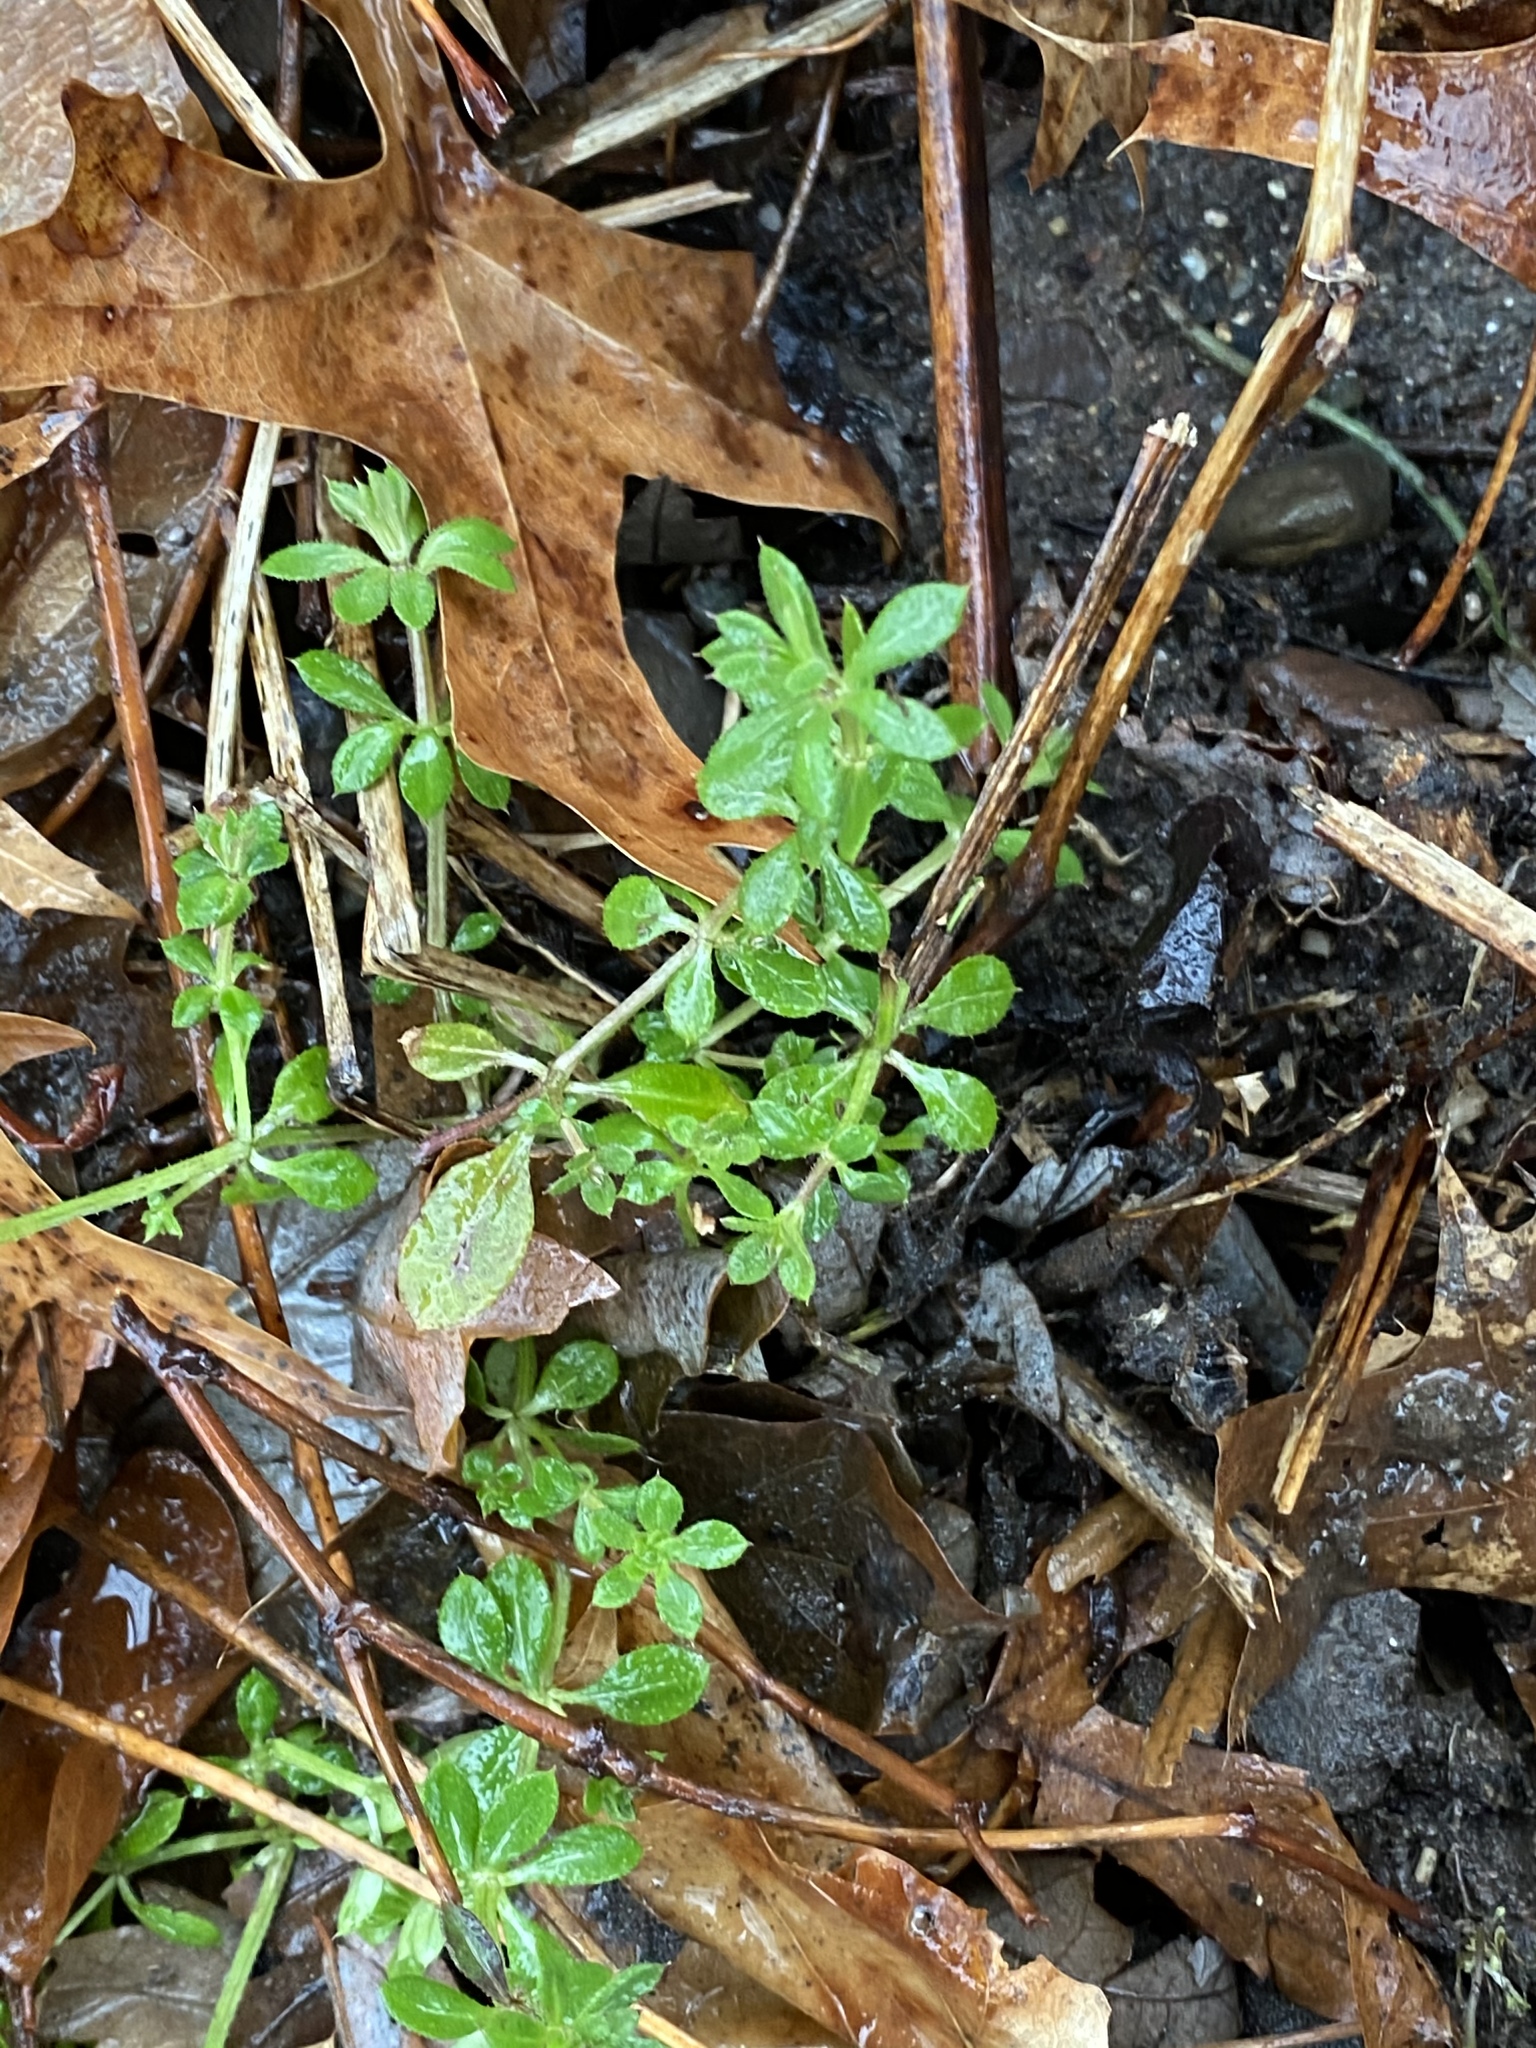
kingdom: Plantae
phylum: Tracheophyta
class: Magnoliopsida
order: Gentianales
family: Rubiaceae
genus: Galium
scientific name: Galium aparine
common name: Cleavers
